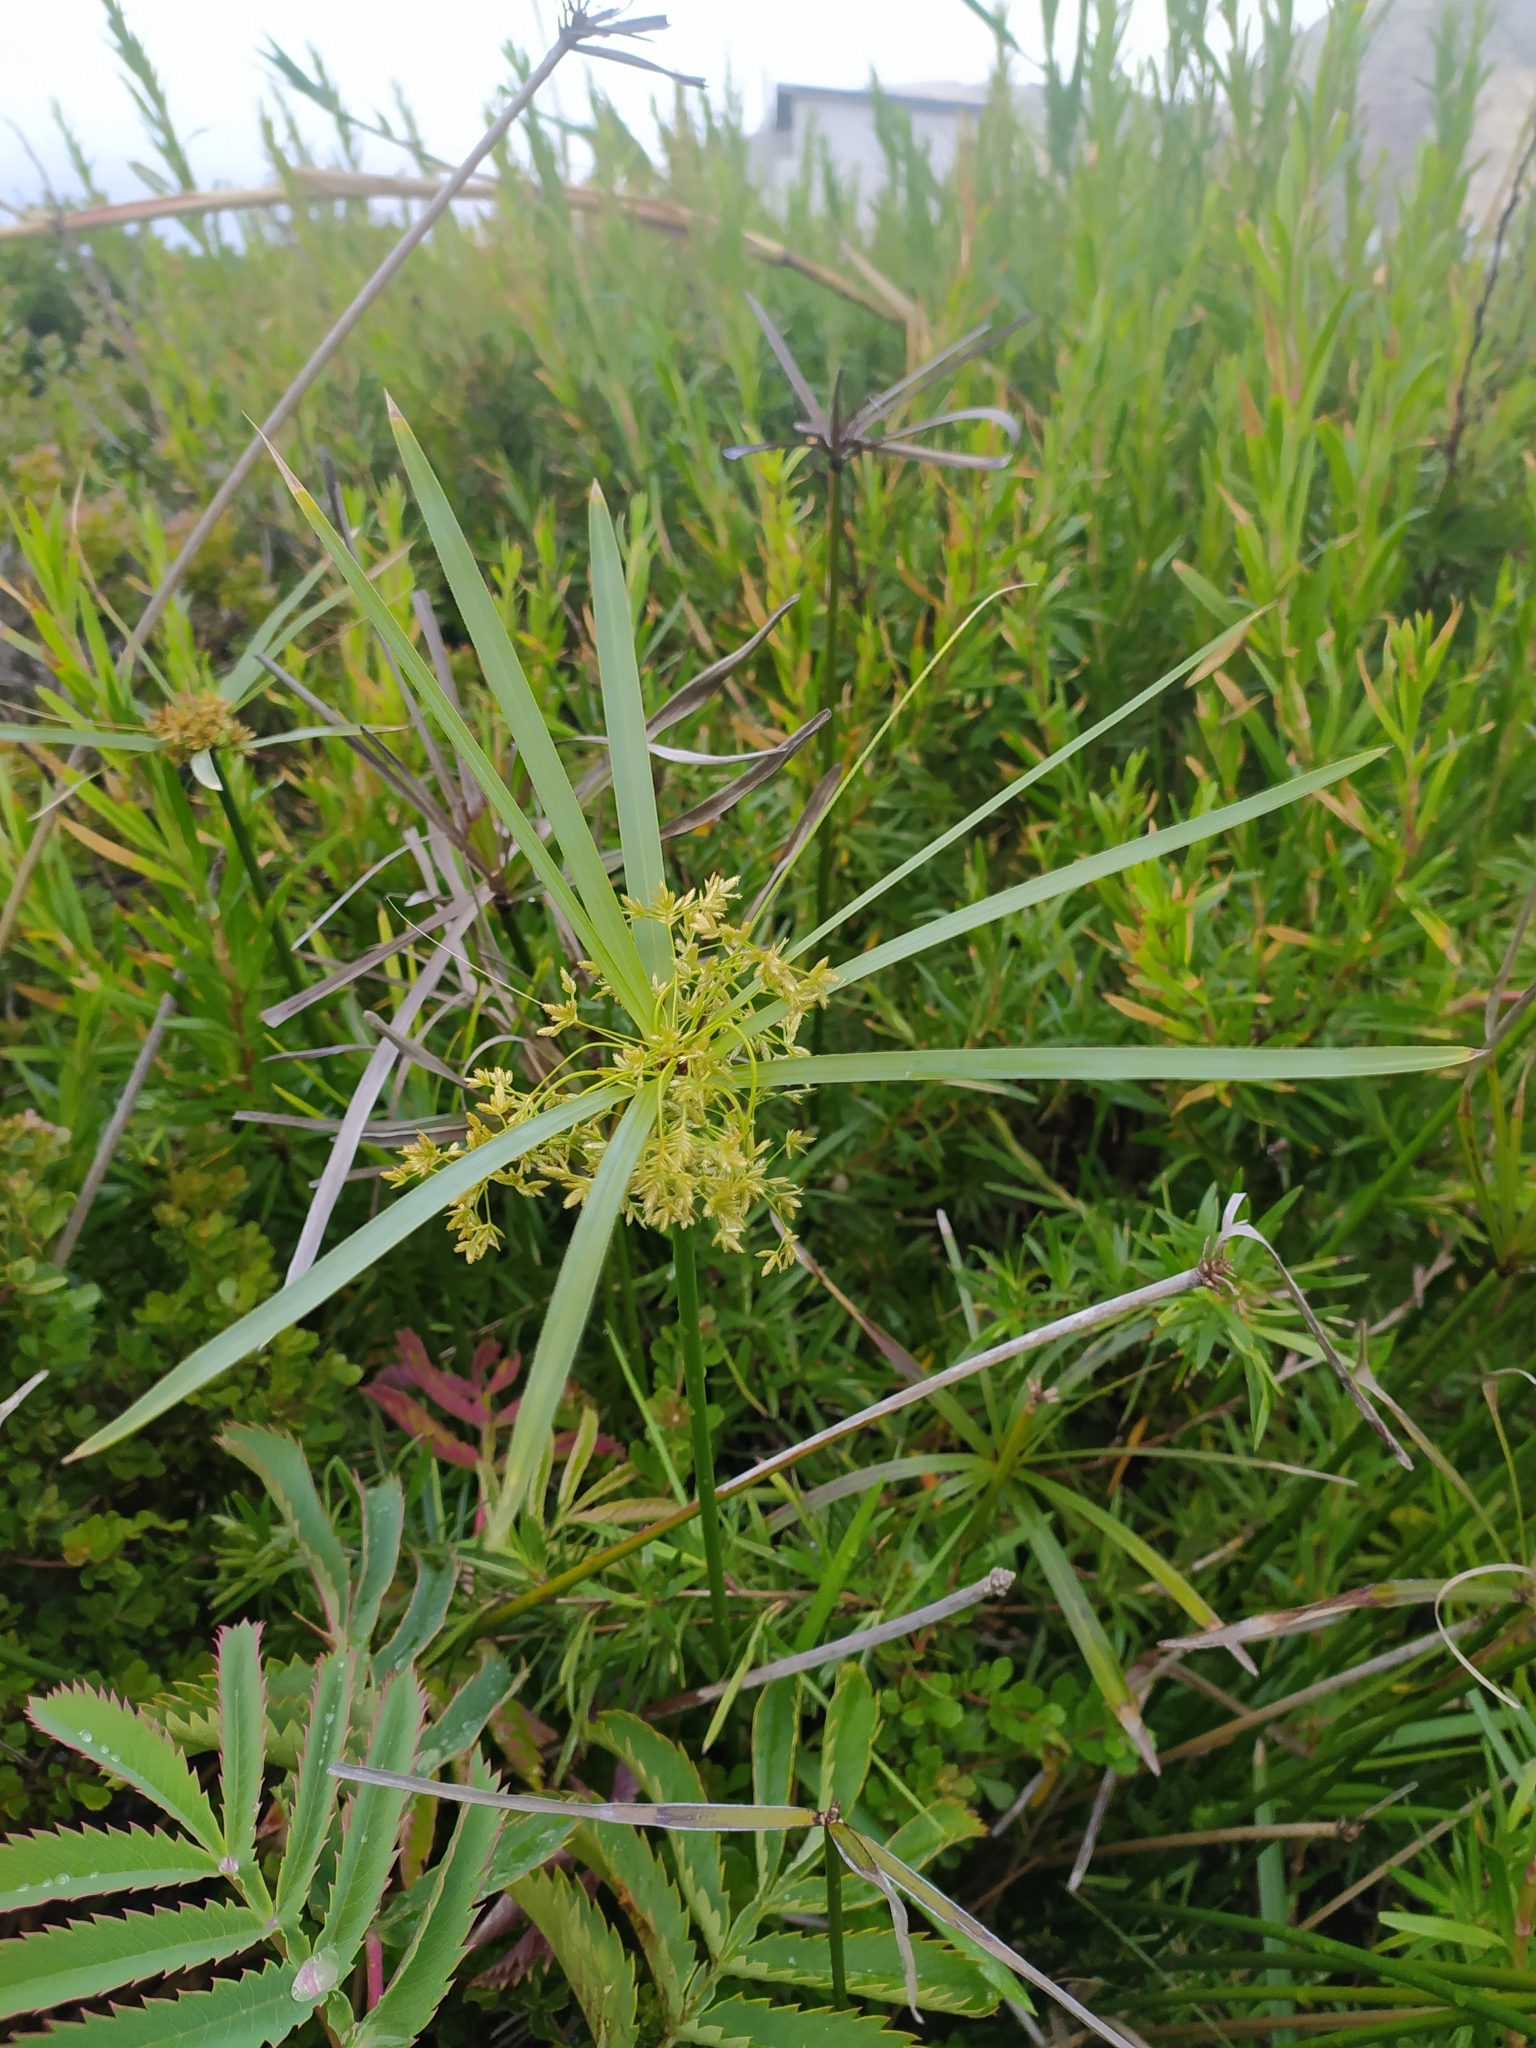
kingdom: Plantae
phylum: Tracheophyta
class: Liliopsida
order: Poales
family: Cyperaceae
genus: Cyperus
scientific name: Cyperus textilis
